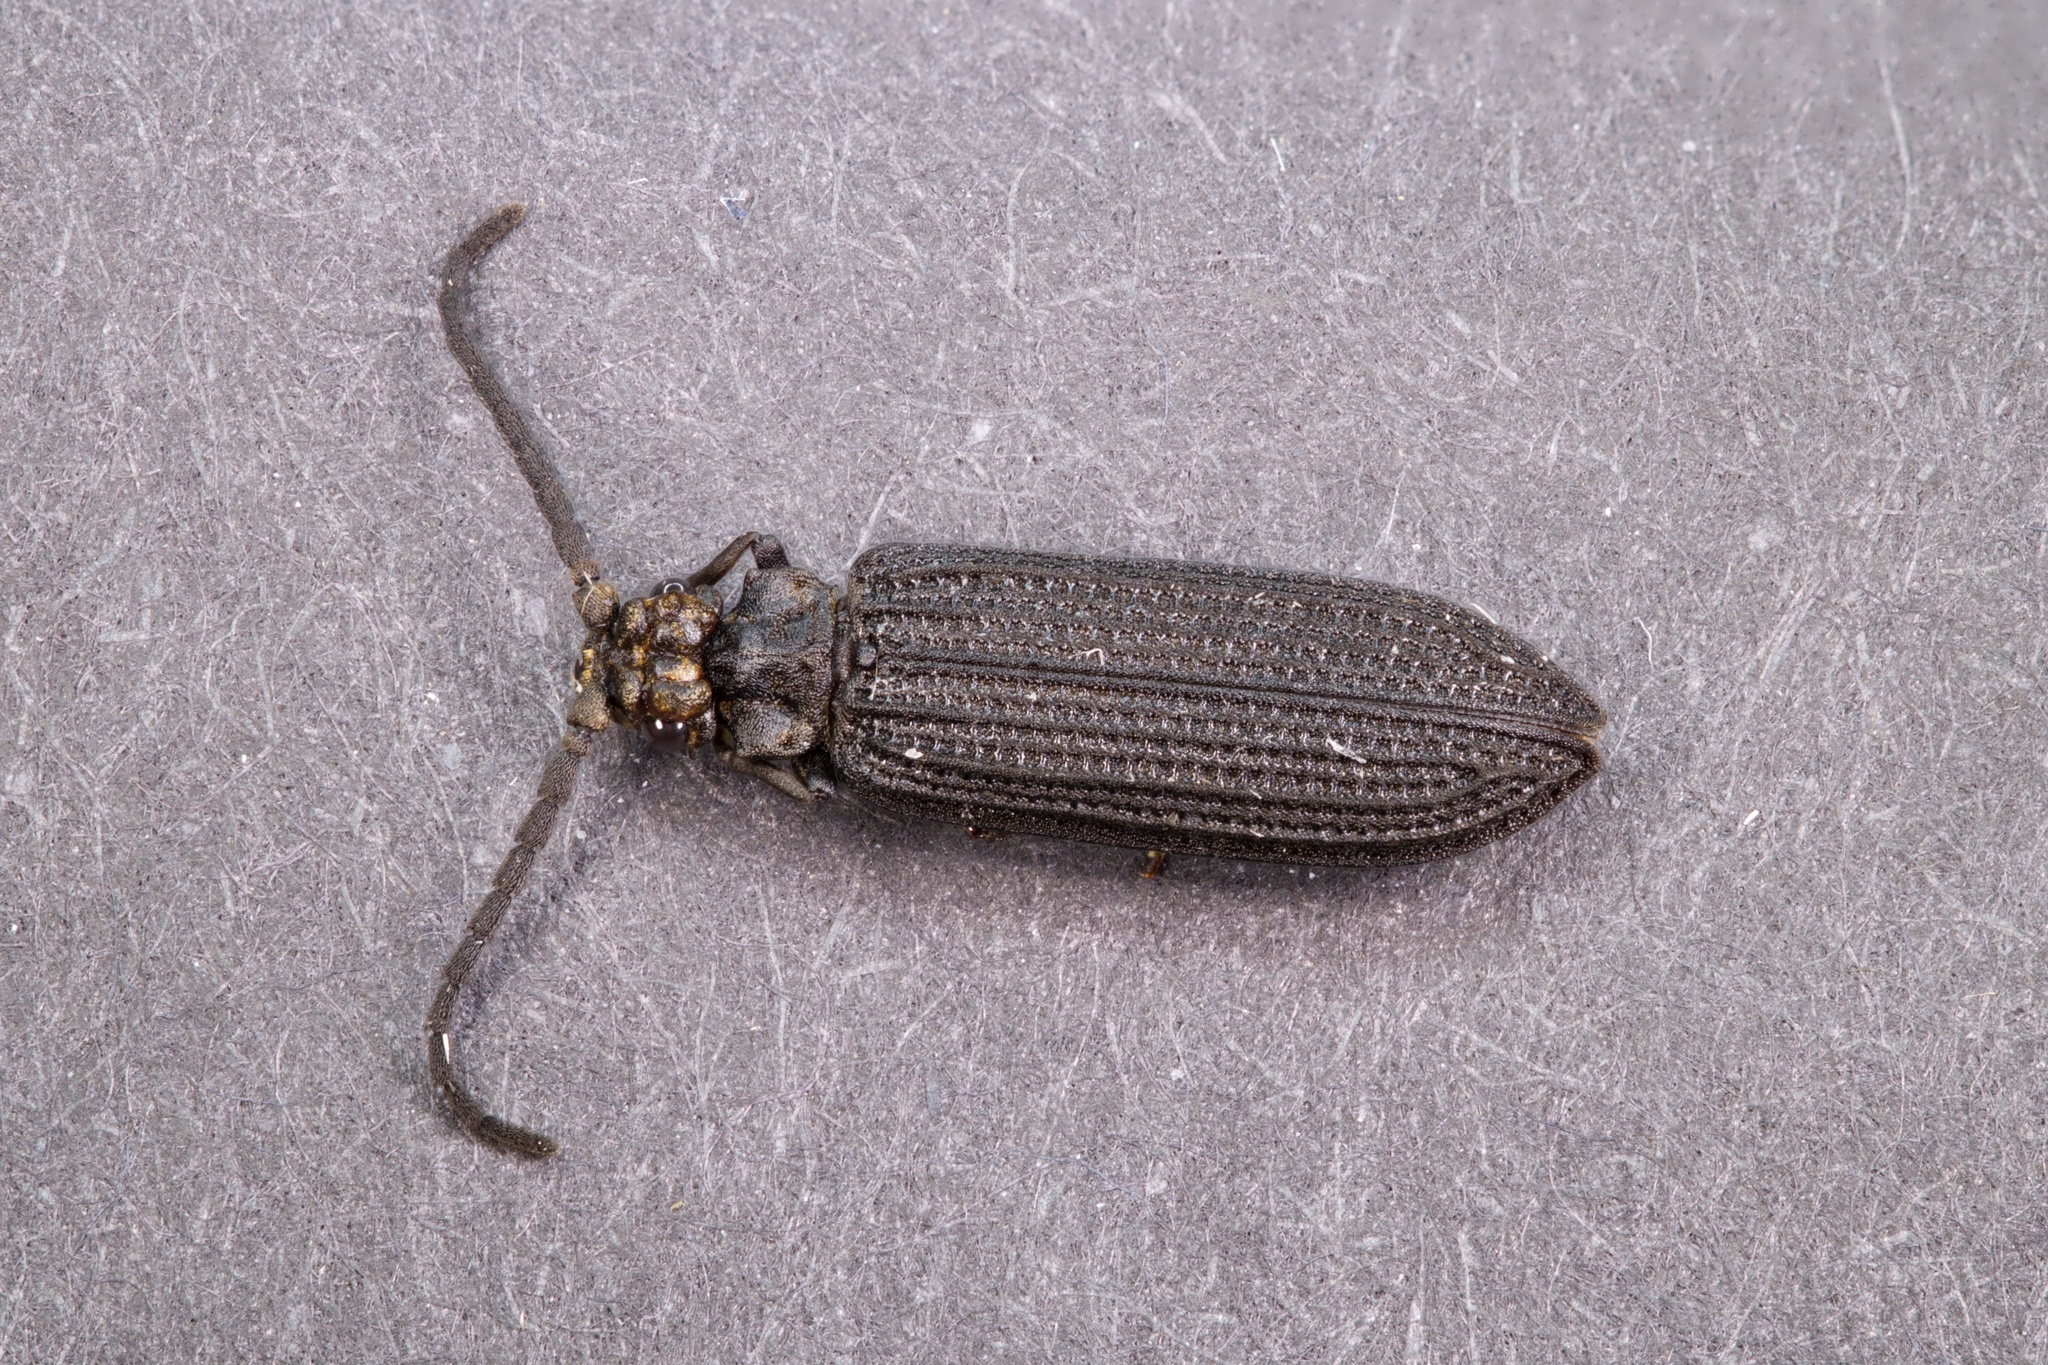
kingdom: Animalia
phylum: Arthropoda
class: Insecta
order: Coleoptera
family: Cupedidae
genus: Cupes
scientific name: Cupes capitata
